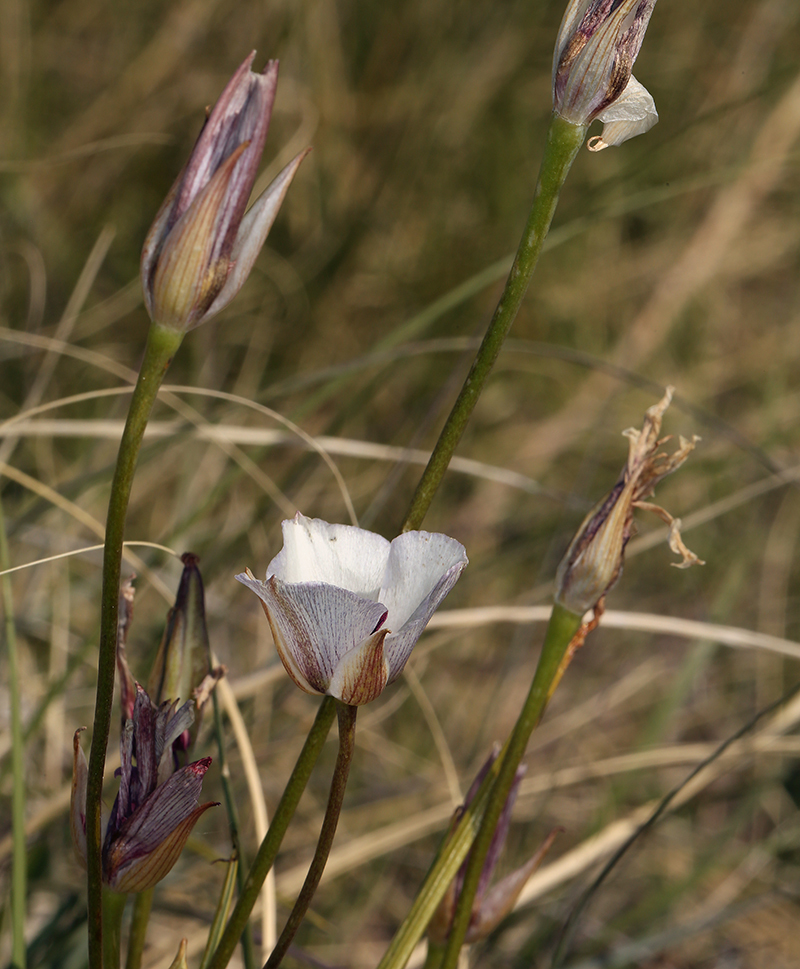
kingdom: Plantae
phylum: Tracheophyta
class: Liliopsida
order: Liliales
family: Liliaceae
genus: Calochortus
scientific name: Calochortus excavatus
